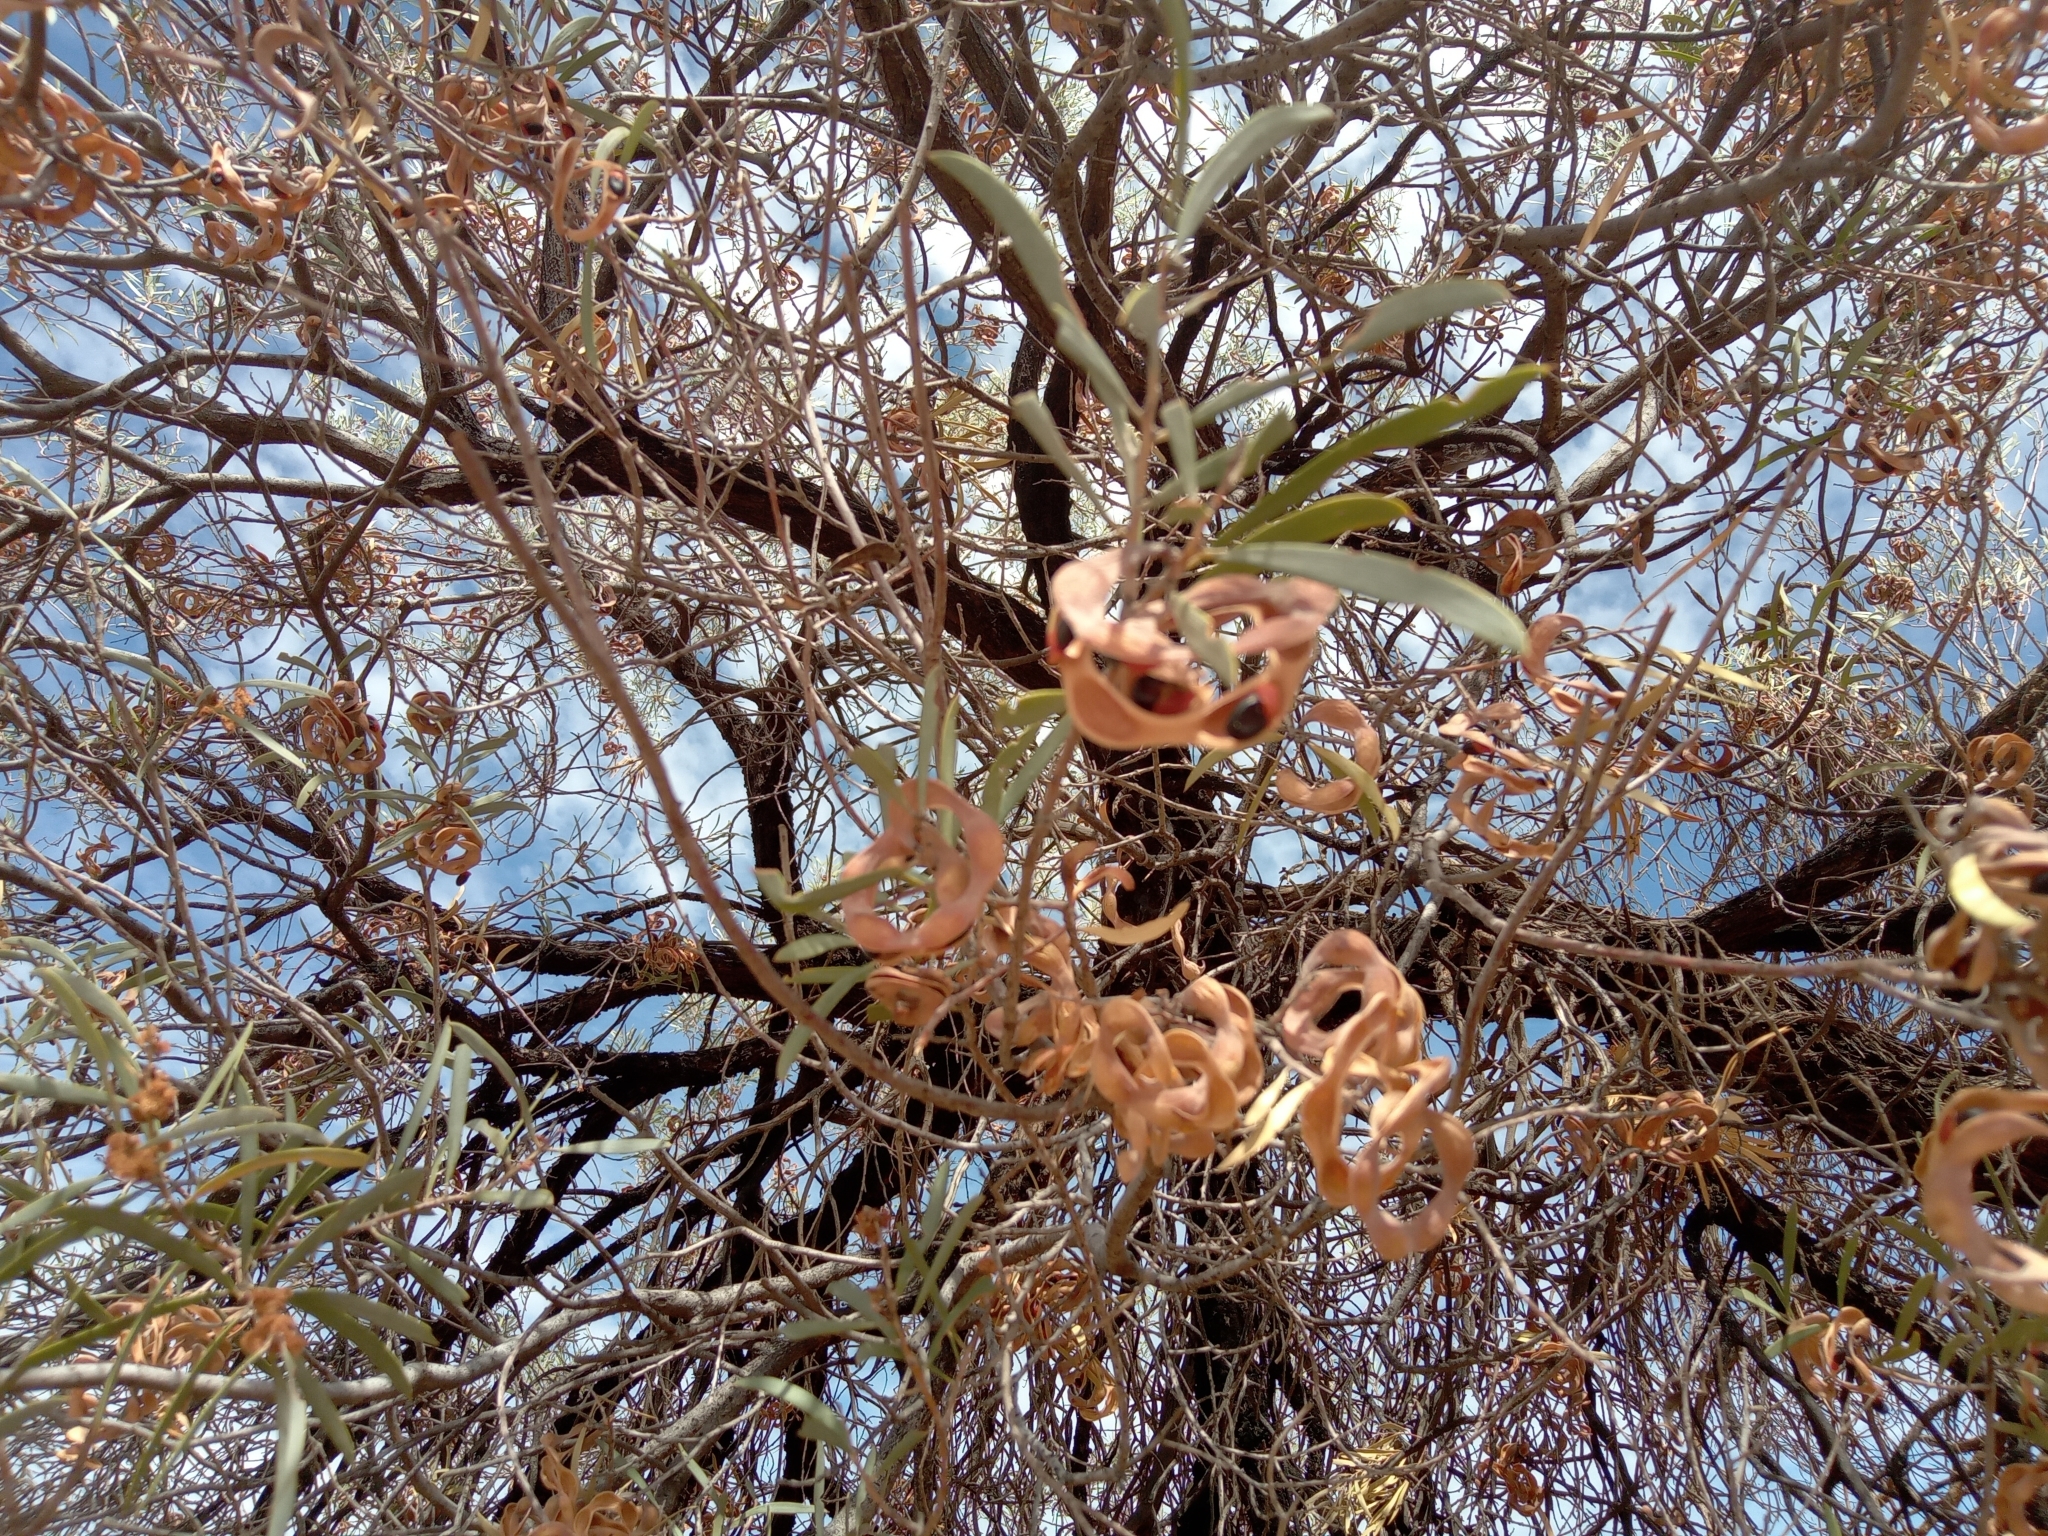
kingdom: Plantae
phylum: Tracheophyta
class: Magnoliopsida
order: Fabales
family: Fabaceae
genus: Acacia
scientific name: Acacia oswaldii
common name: Umbrella wattle
